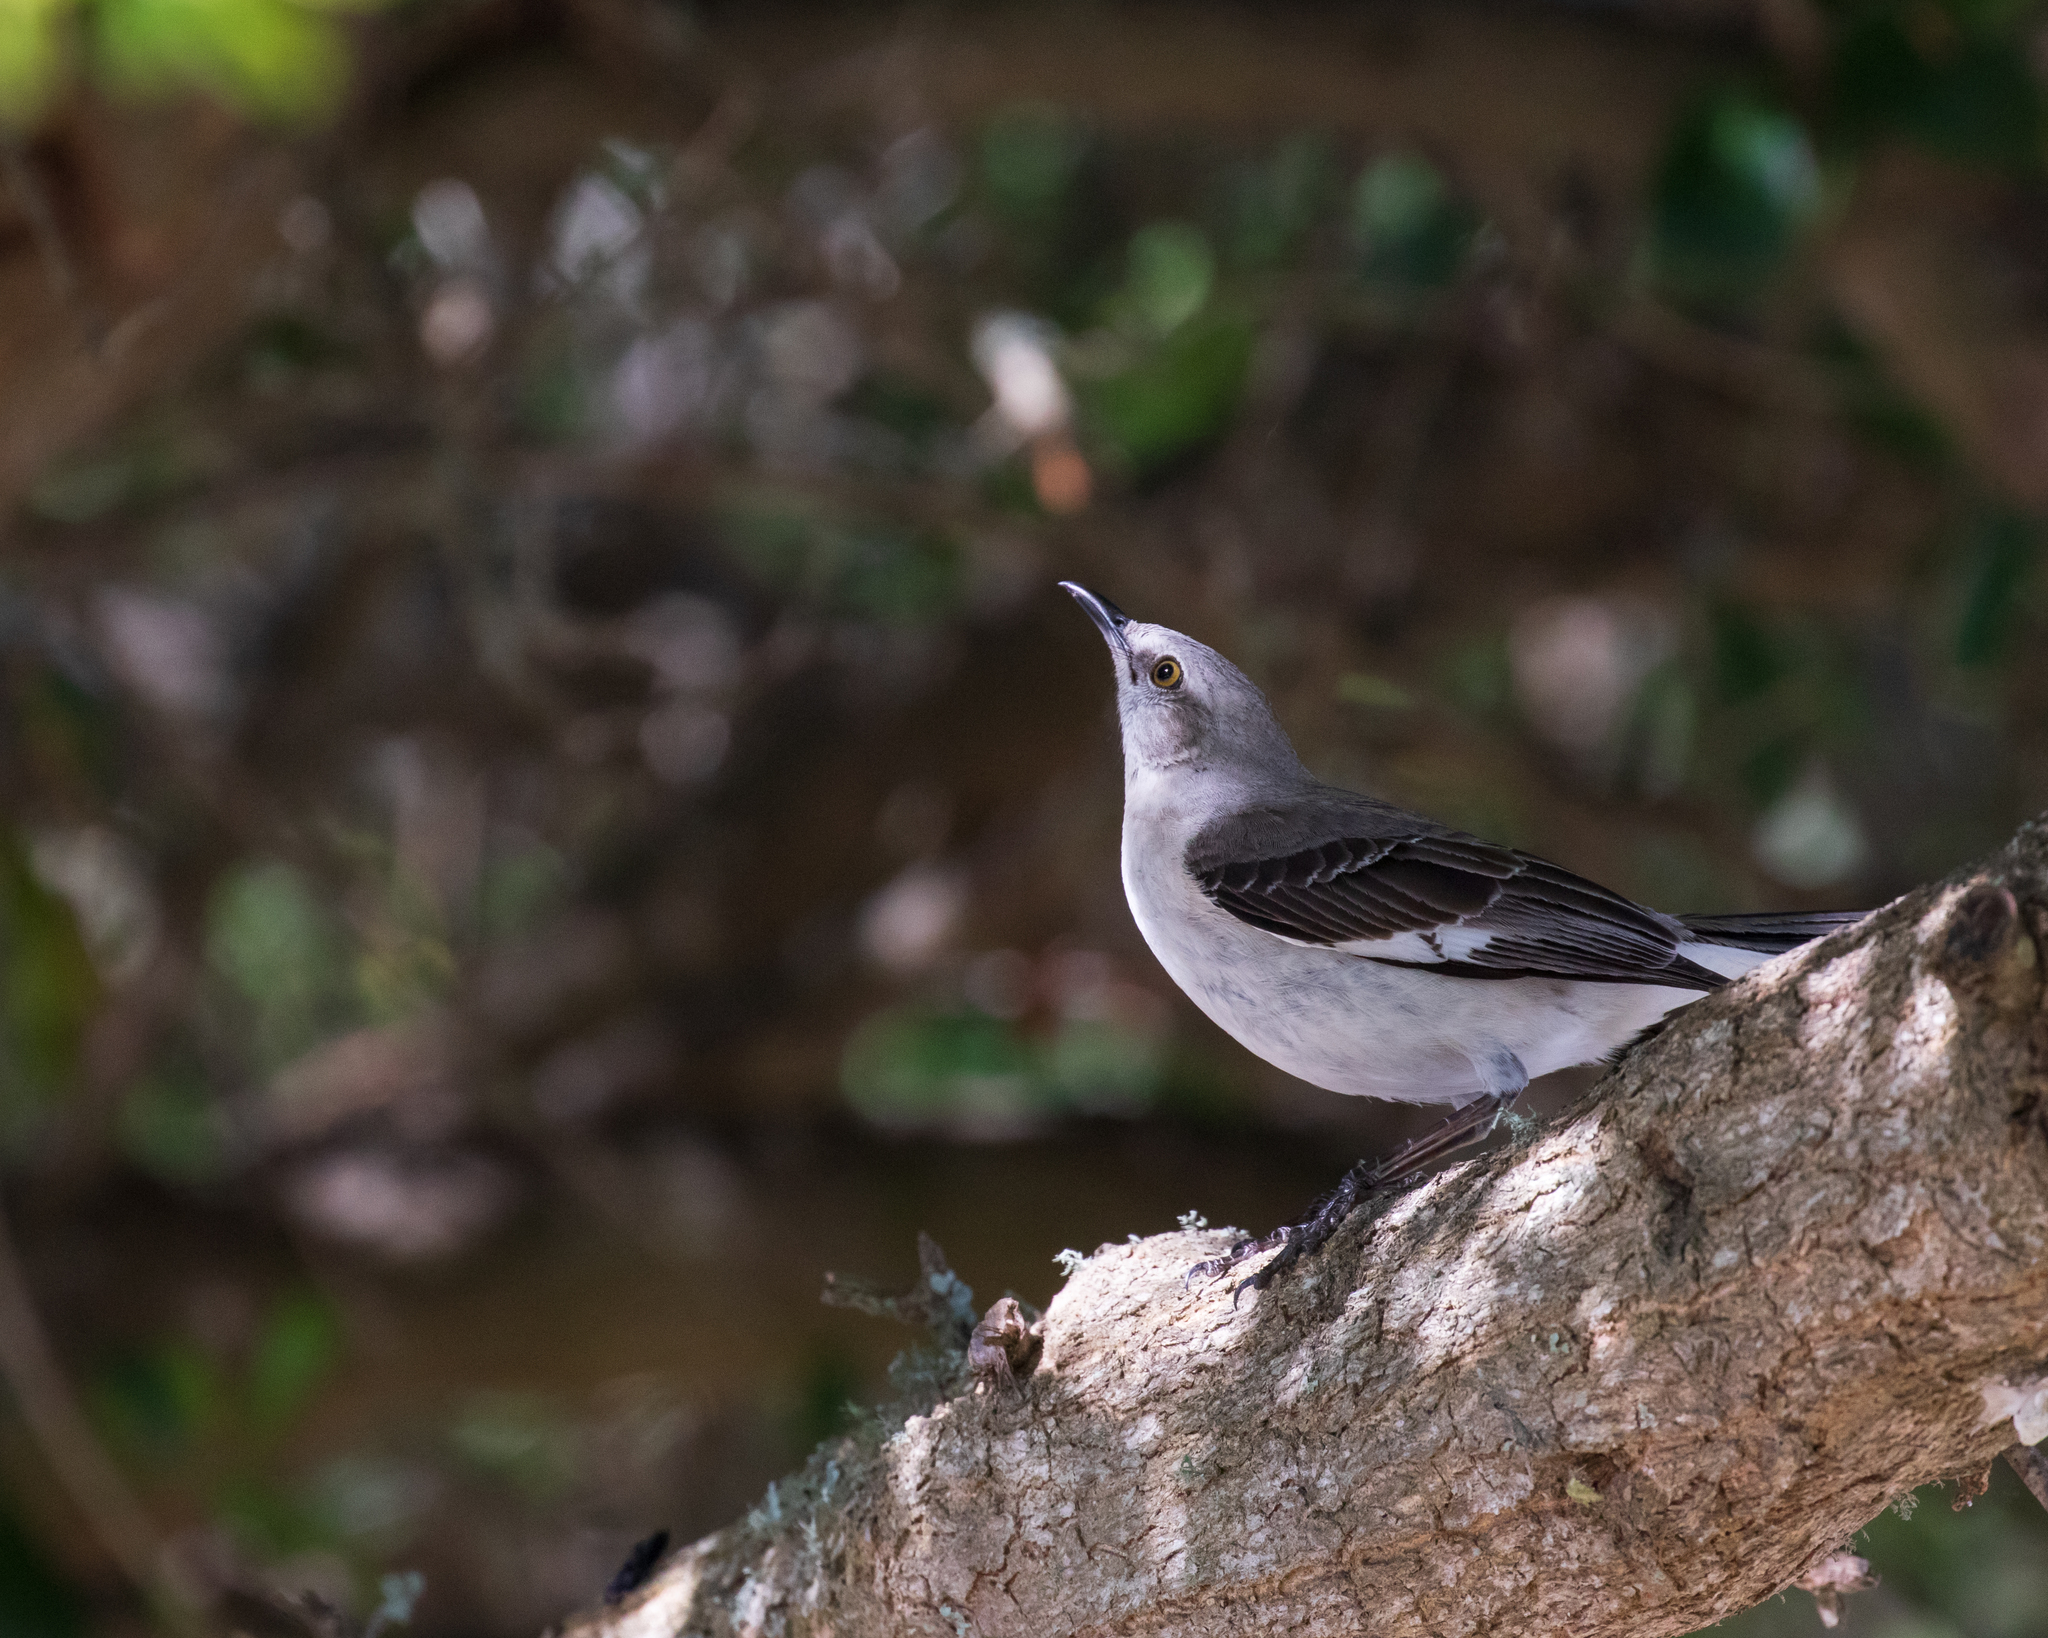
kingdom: Animalia
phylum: Chordata
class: Aves
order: Passeriformes
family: Mimidae
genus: Mimus
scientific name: Mimus polyglottos
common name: Northern mockingbird
